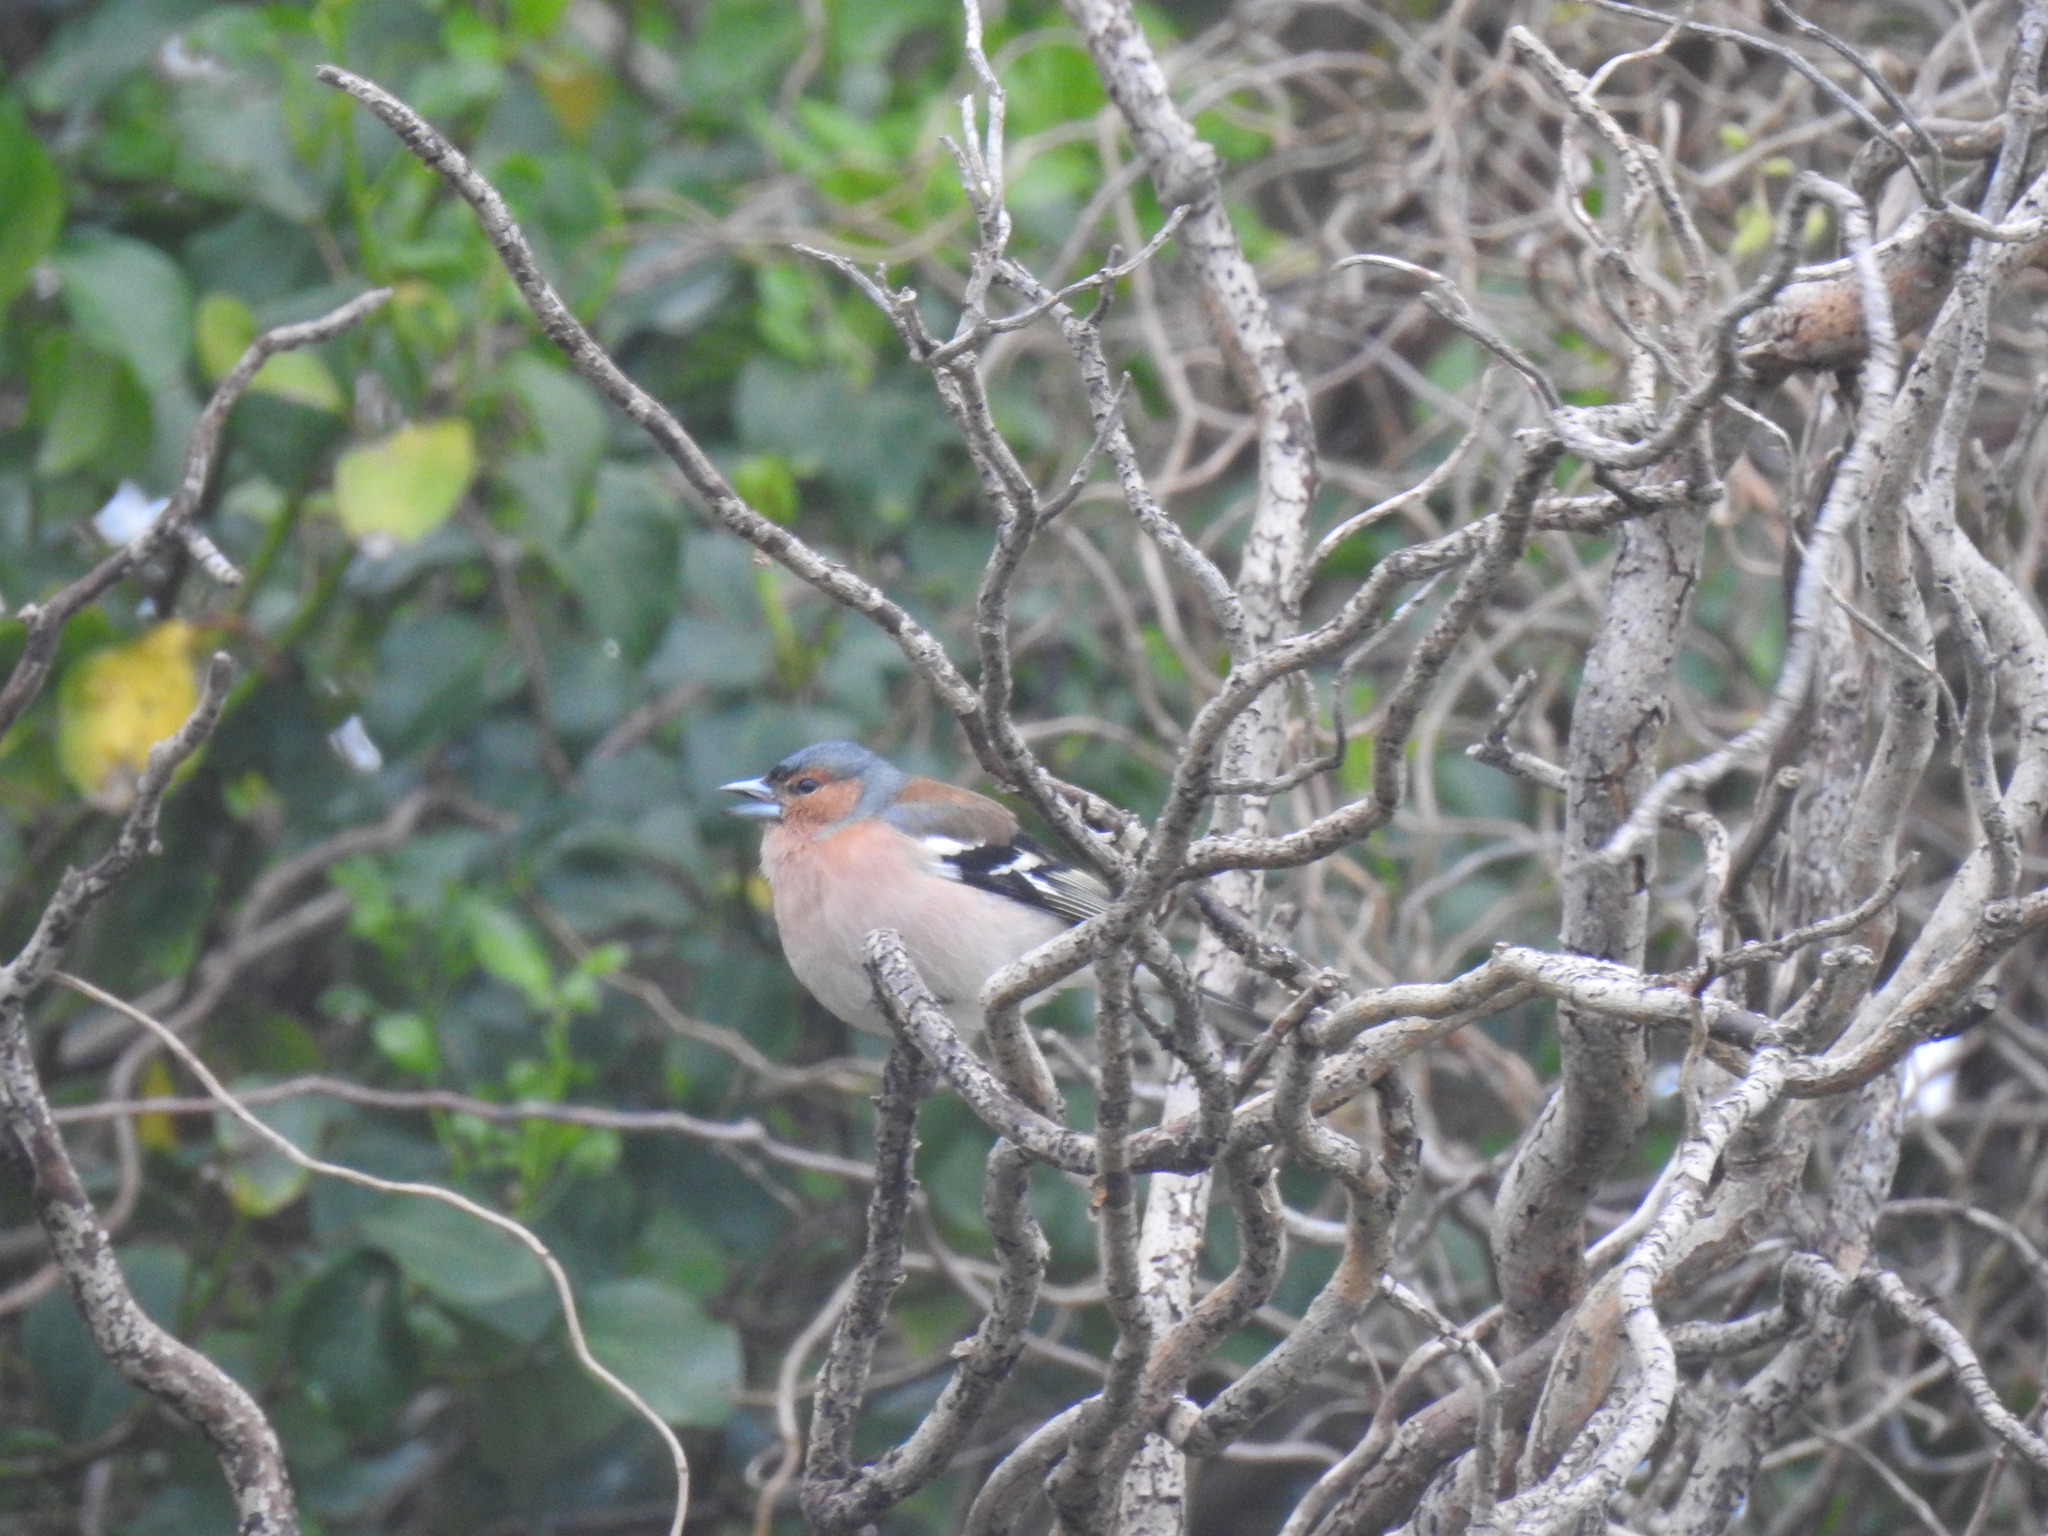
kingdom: Animalia
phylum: Chordata
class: Aves
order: Passeriformes
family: Fringillidae
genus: Fringilla
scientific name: Fringilla coelebs
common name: Common chaffinch
